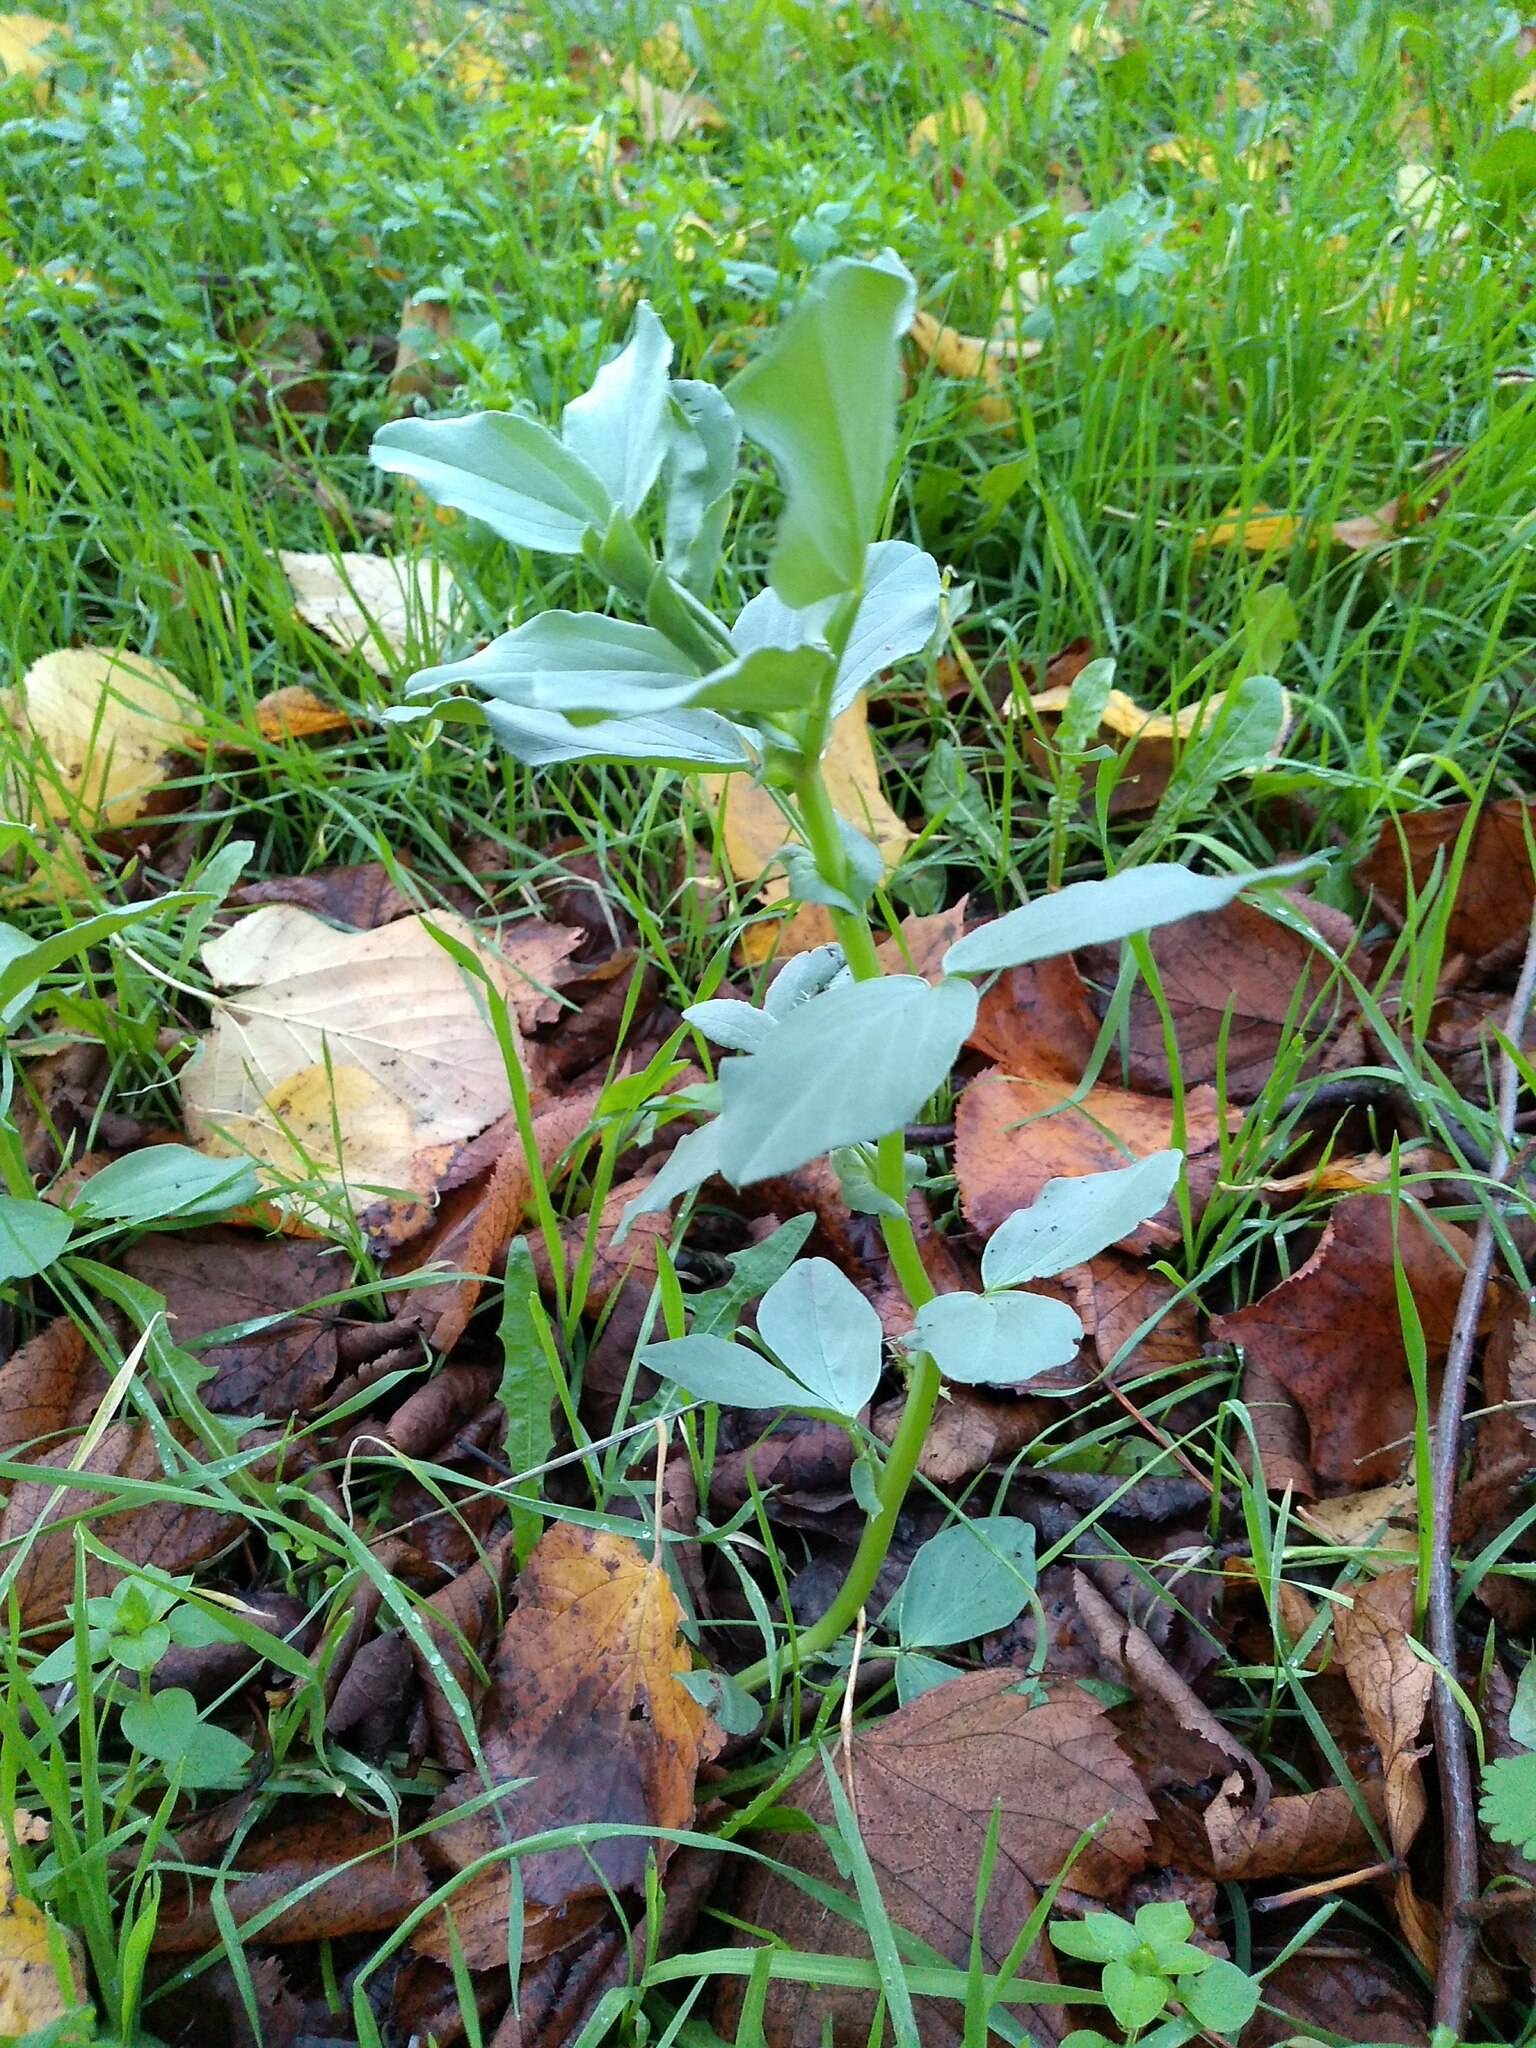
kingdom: Plantae
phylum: Tracheophyta
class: Magnoliopsida
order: Fabales
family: Fabaceae
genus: Vicia
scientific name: Vicia faba
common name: Broad bean
